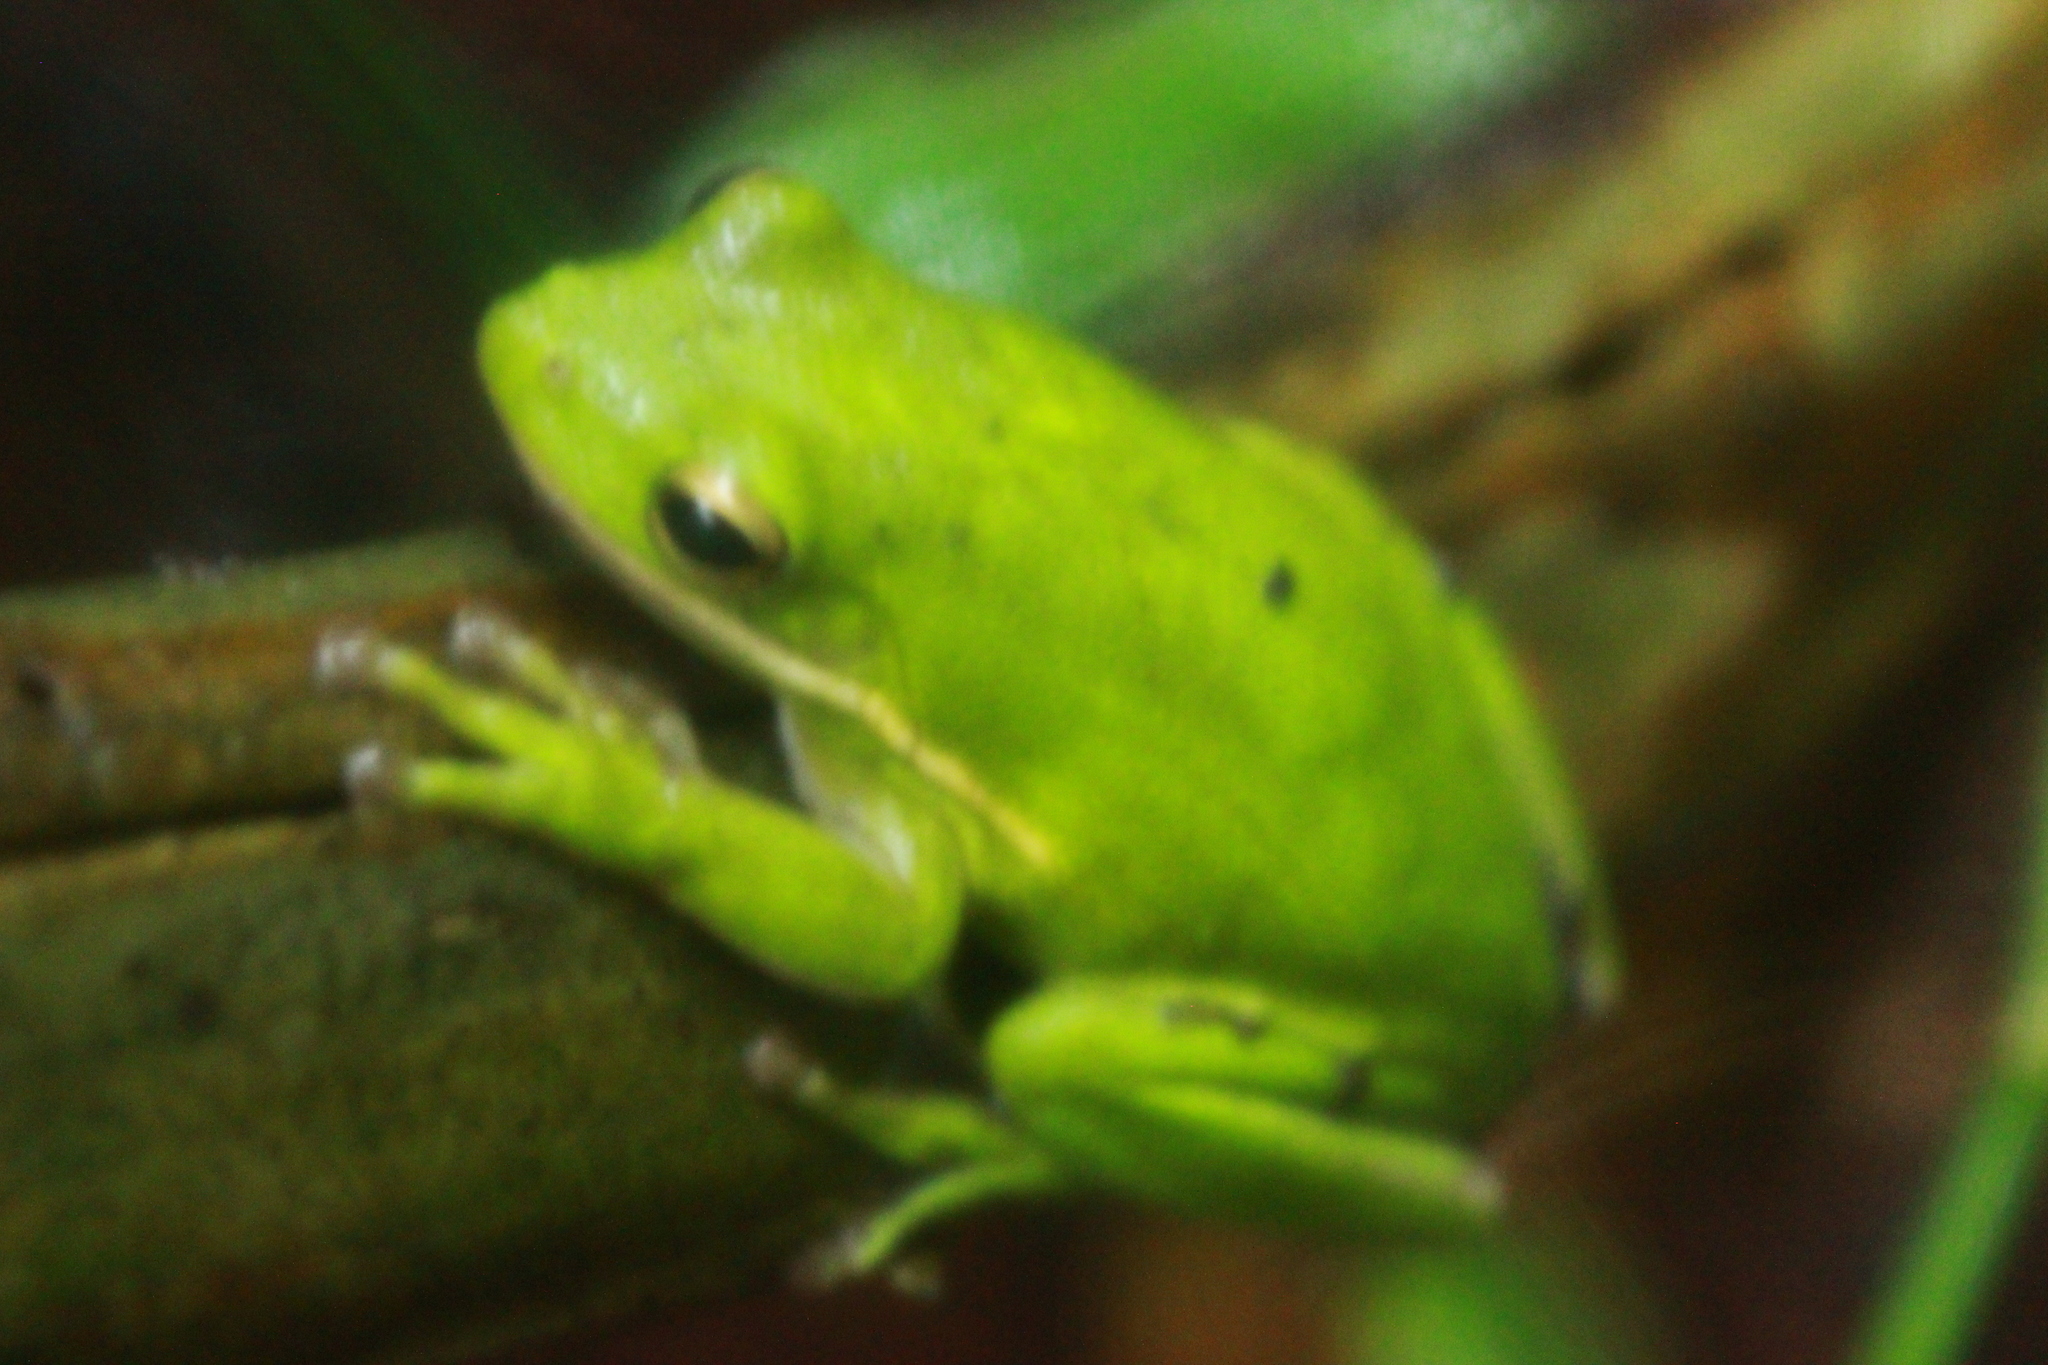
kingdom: Animalia
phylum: Chordata
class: Amphibia
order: Anura
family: Hylidae
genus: Dryophytes
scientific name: Dryophytes cinereus
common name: Green treefrog
